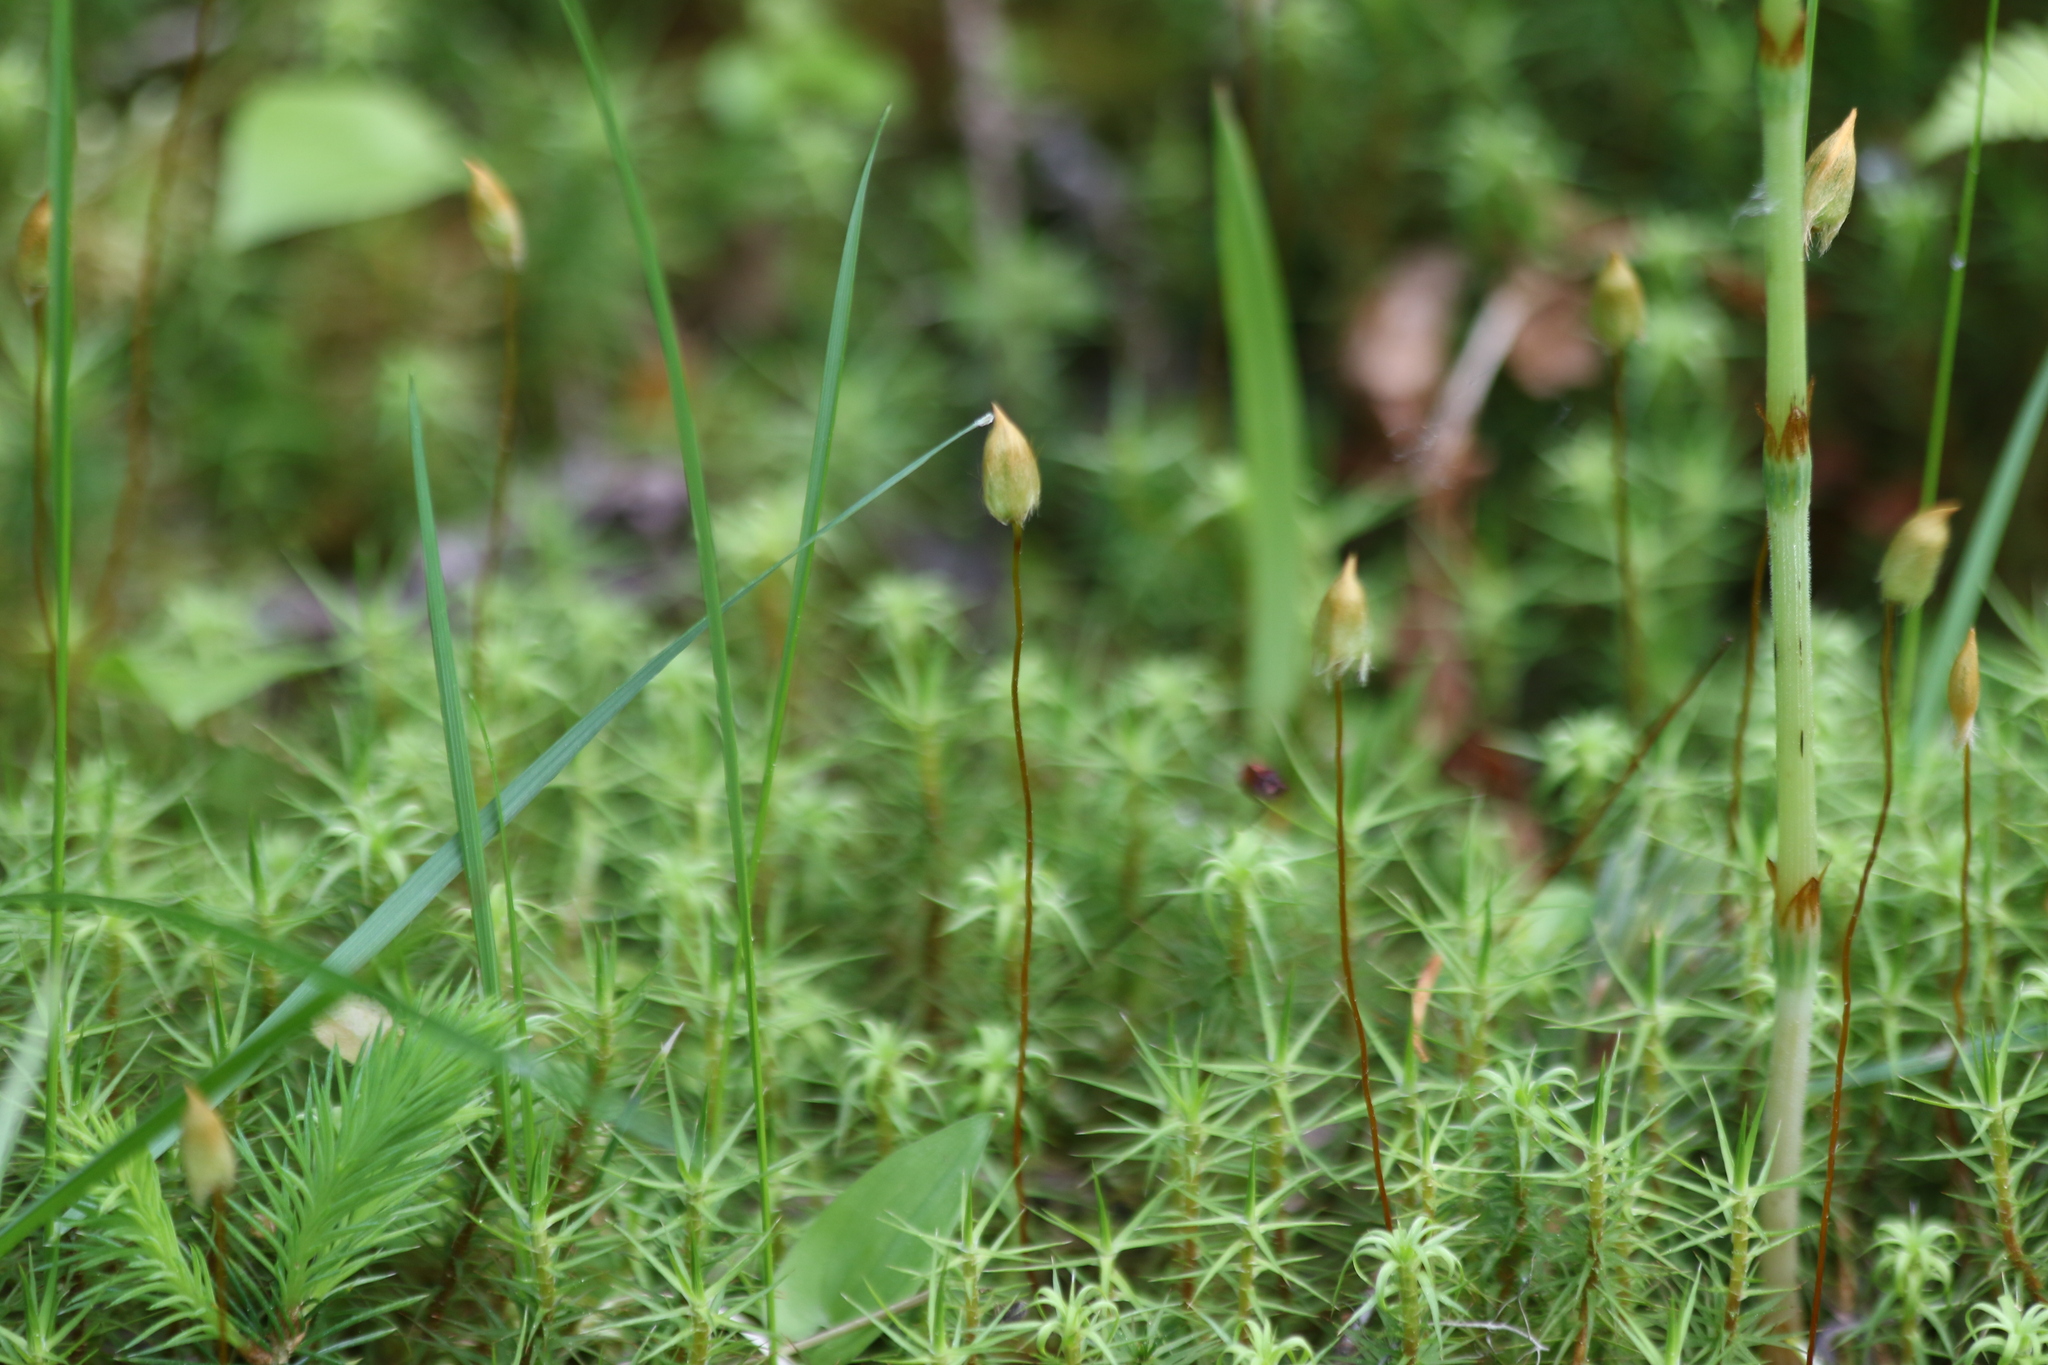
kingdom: Plantae
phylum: Bryophyta
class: Polytrichopsida
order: Polytrichales
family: Polytrichaceae
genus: Polytrichum
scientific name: Polytrichum commune
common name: Common haircap
